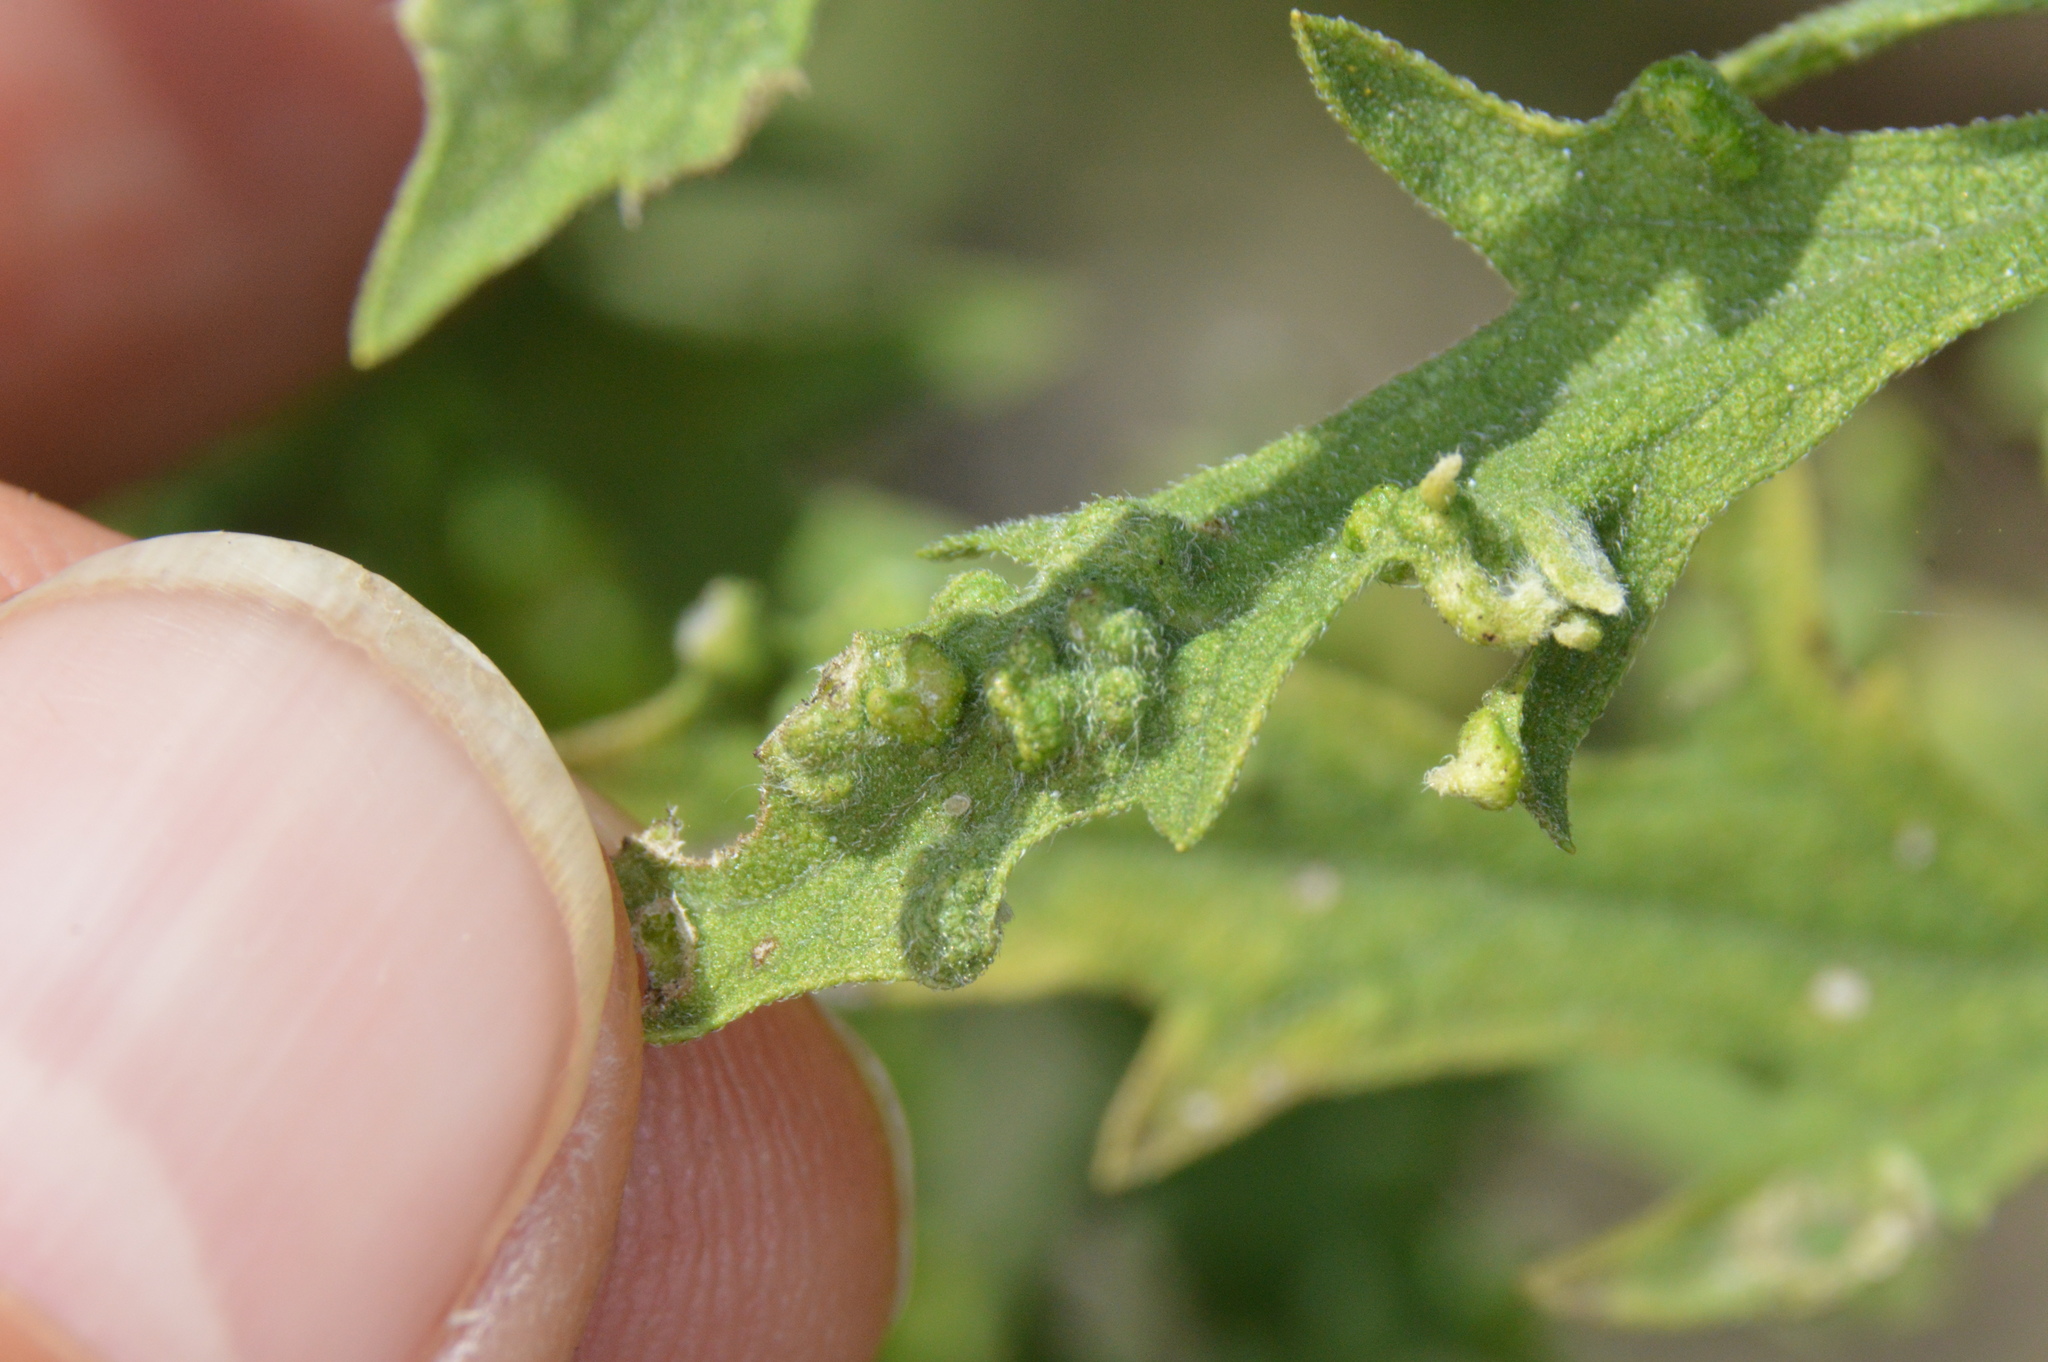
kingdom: Animalia
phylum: Arthropoda
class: Arachnida
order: Trombidiformes
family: Eriophyidae
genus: Aceria
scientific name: Aceria
